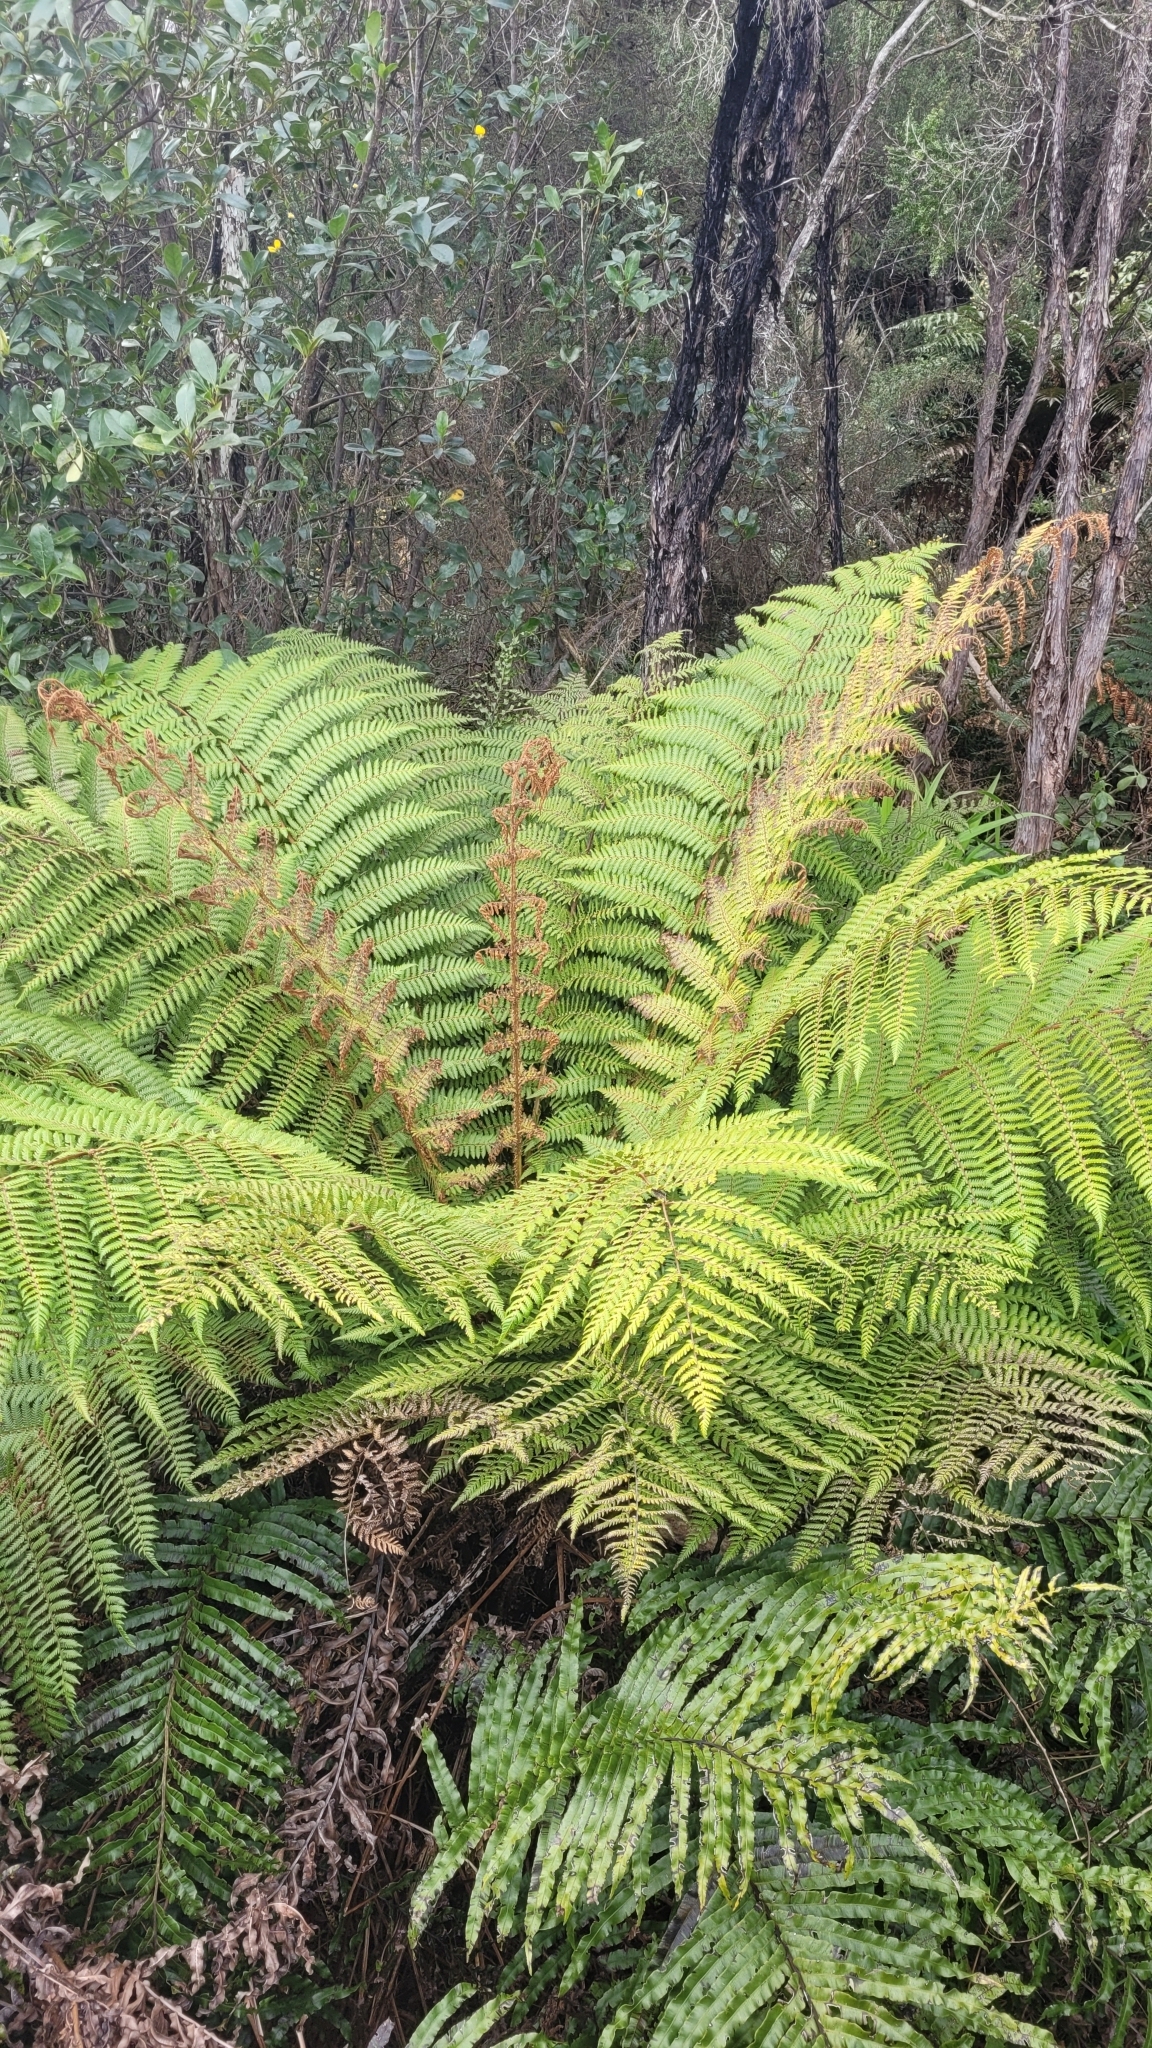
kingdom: Plantae
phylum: Tracheophyta
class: Polypodiopsida
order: Cyatheales
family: Cyatheaceae
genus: Alsophila
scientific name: Alsophila smithii
